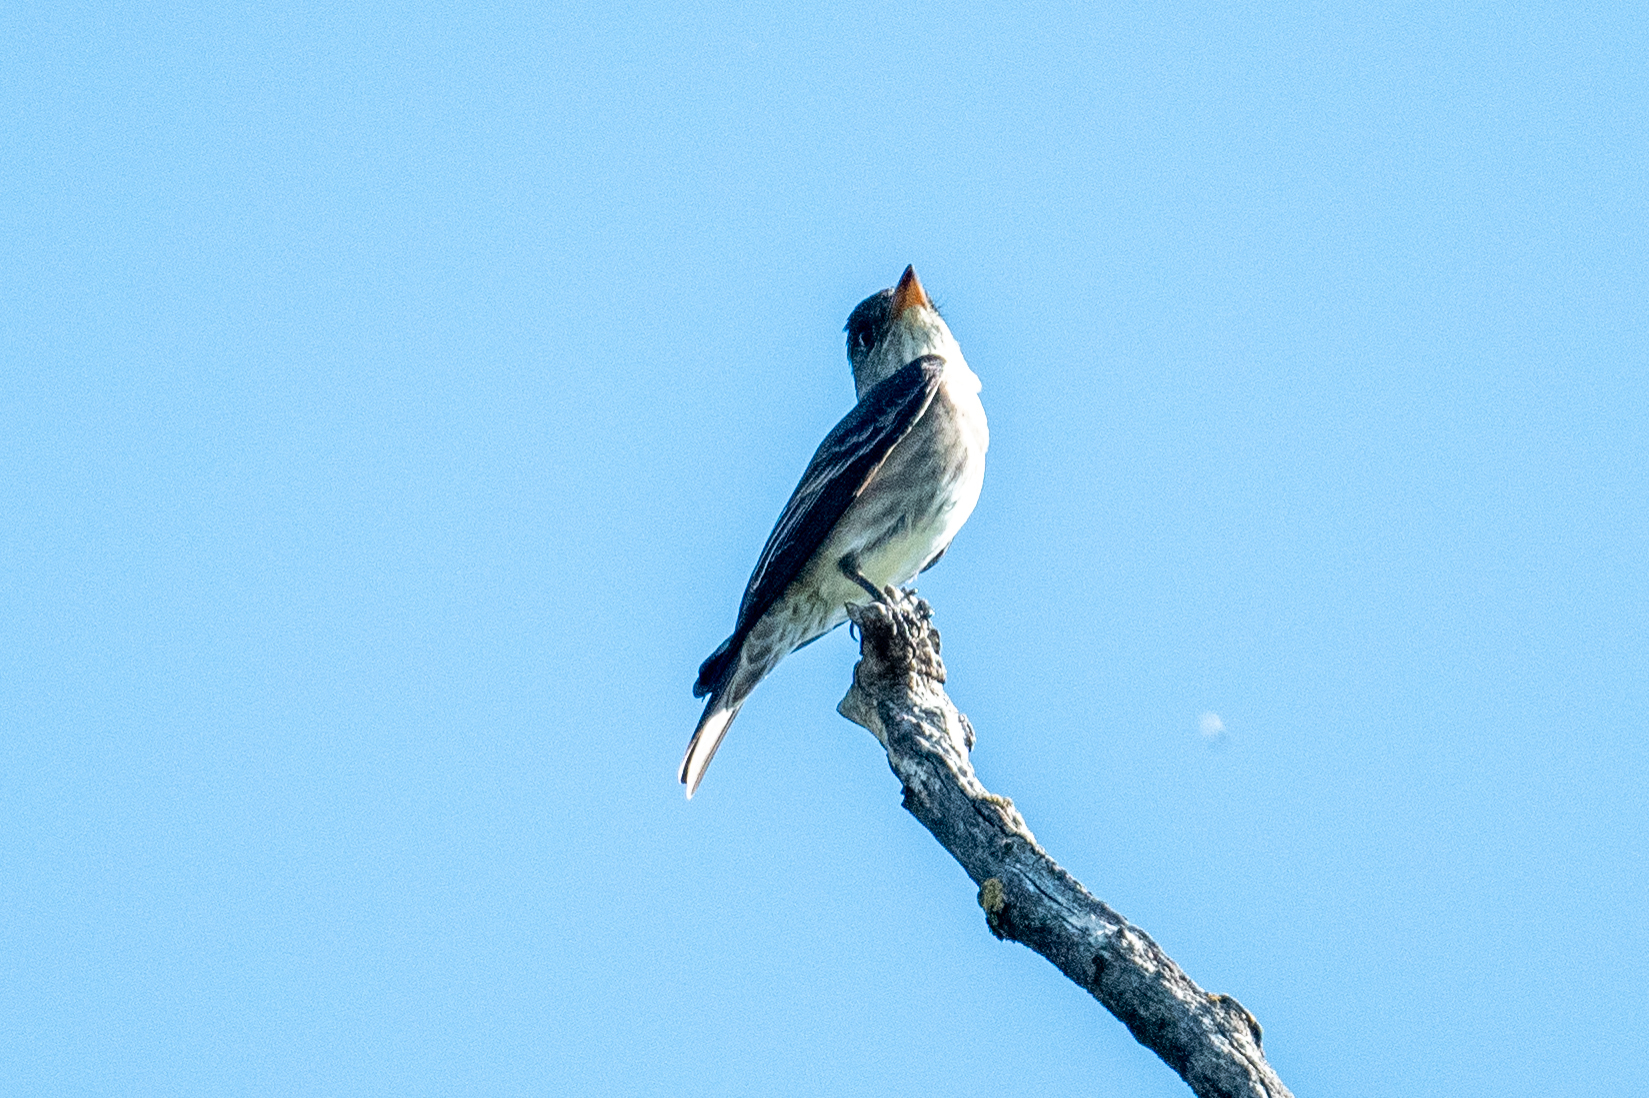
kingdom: Animalia
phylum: Chordata
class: Aves
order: Passeriformes
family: Tyrannidae
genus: Contopus
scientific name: Contopus cooperi
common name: Olive-sided flycatcher
